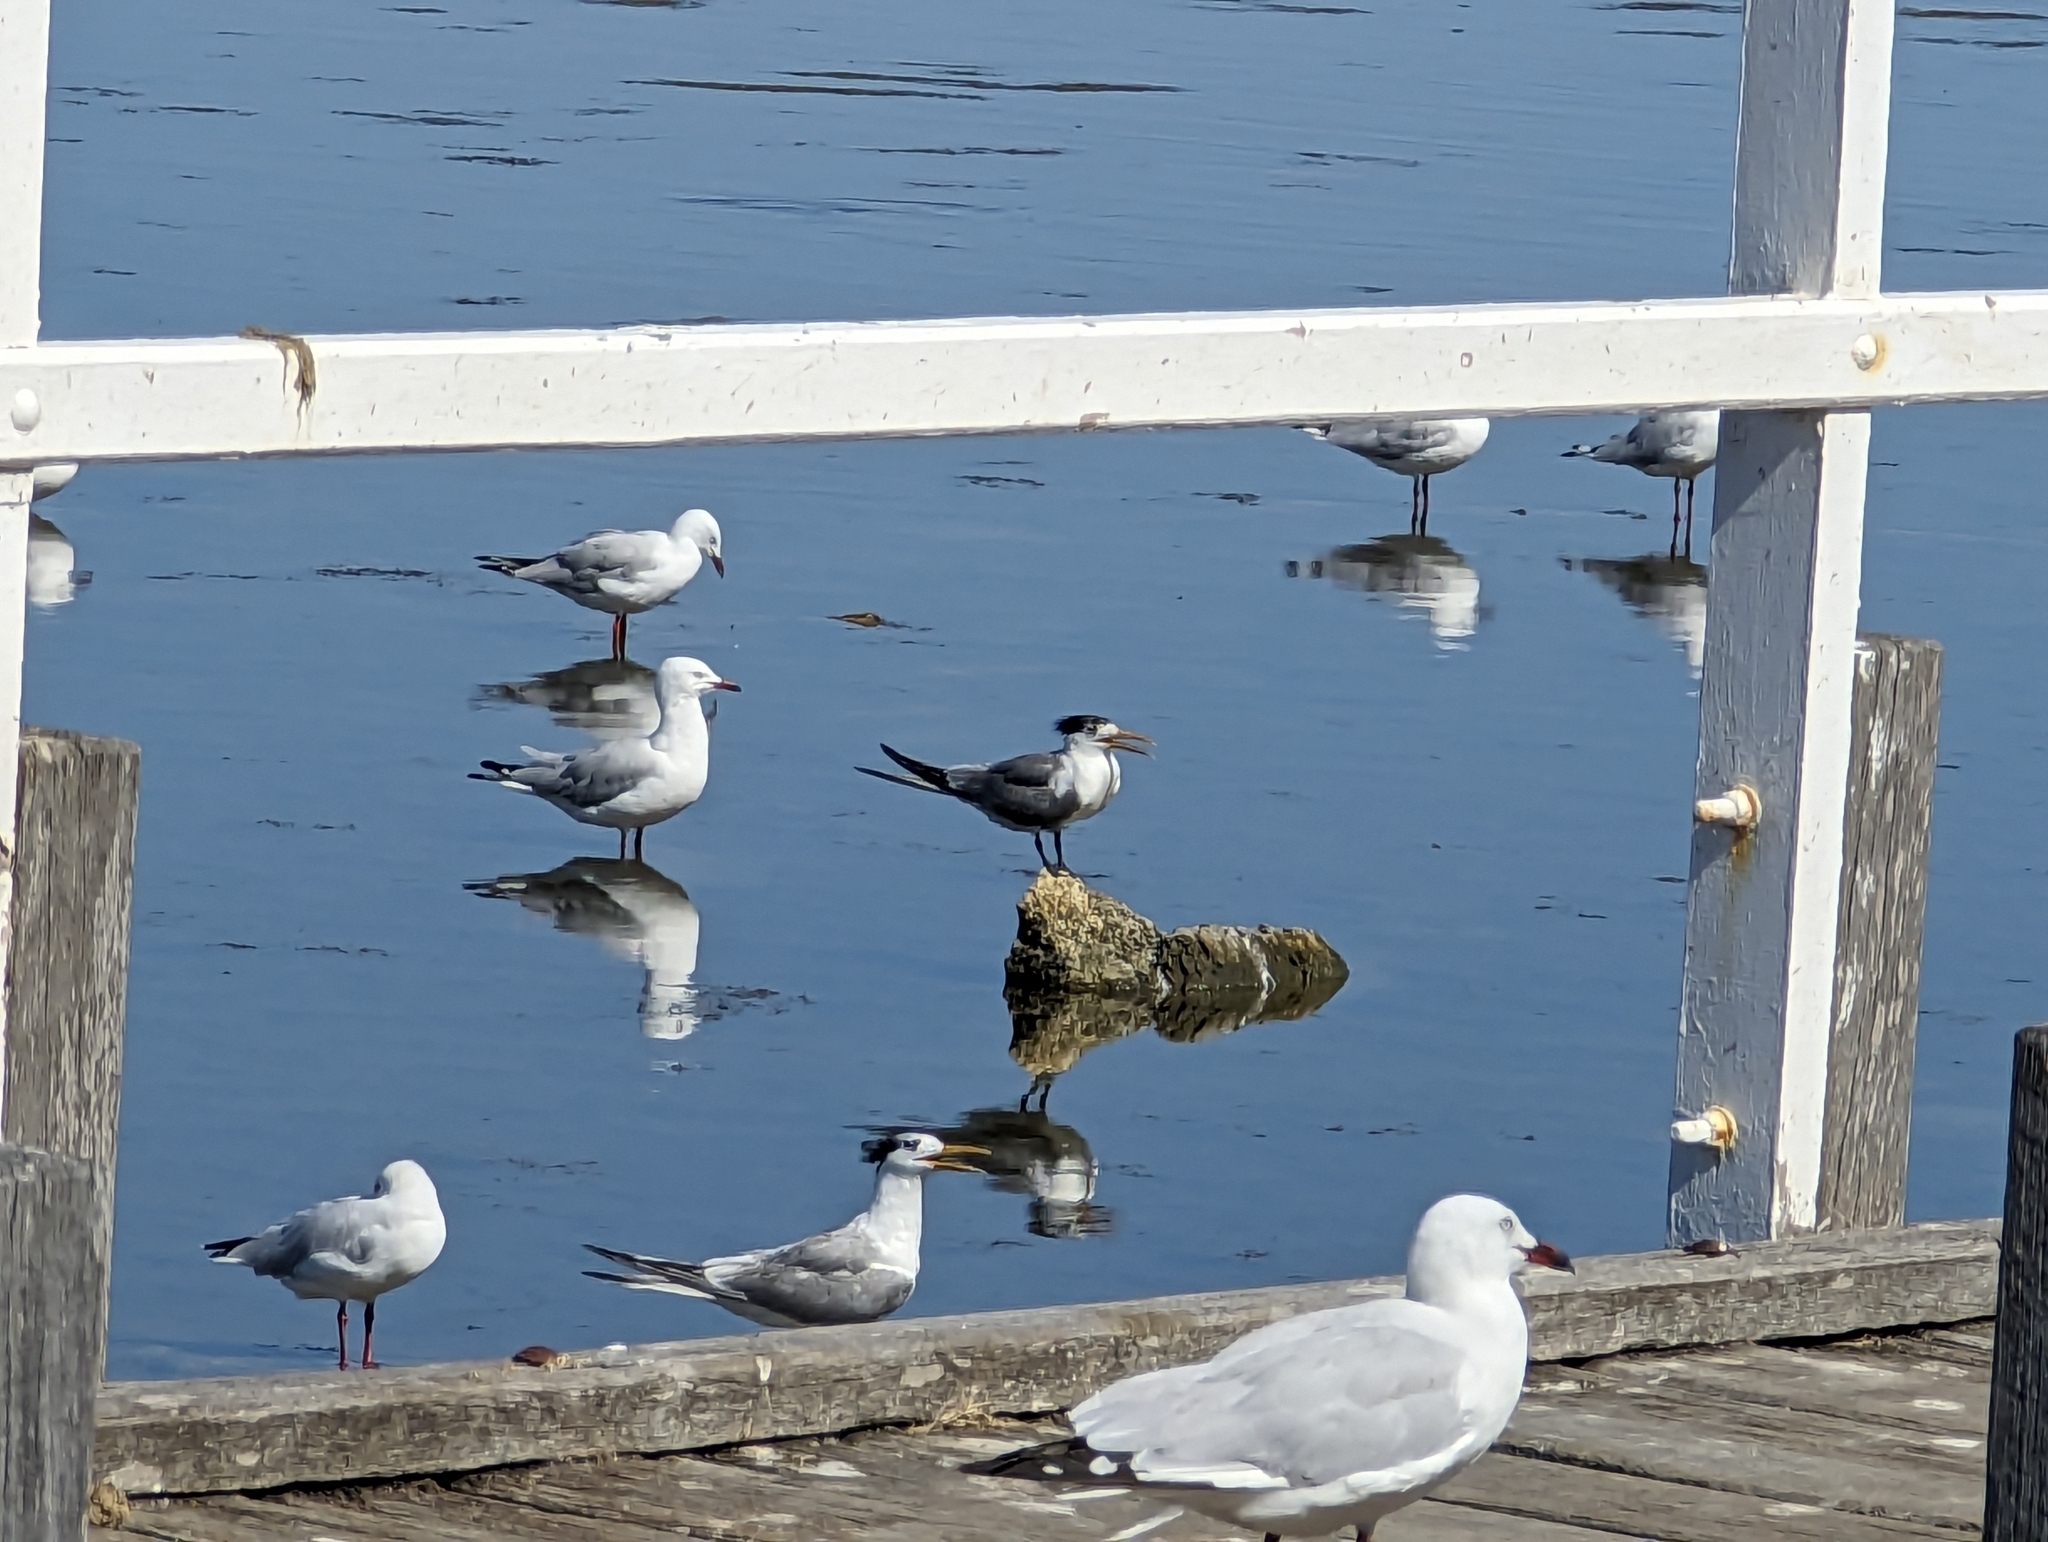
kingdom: Animalia
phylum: Chordata
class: Aves
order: Charadriiformes
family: Laridae
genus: Thalasseus
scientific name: Thalasseus bergii
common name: Greater crested tern
